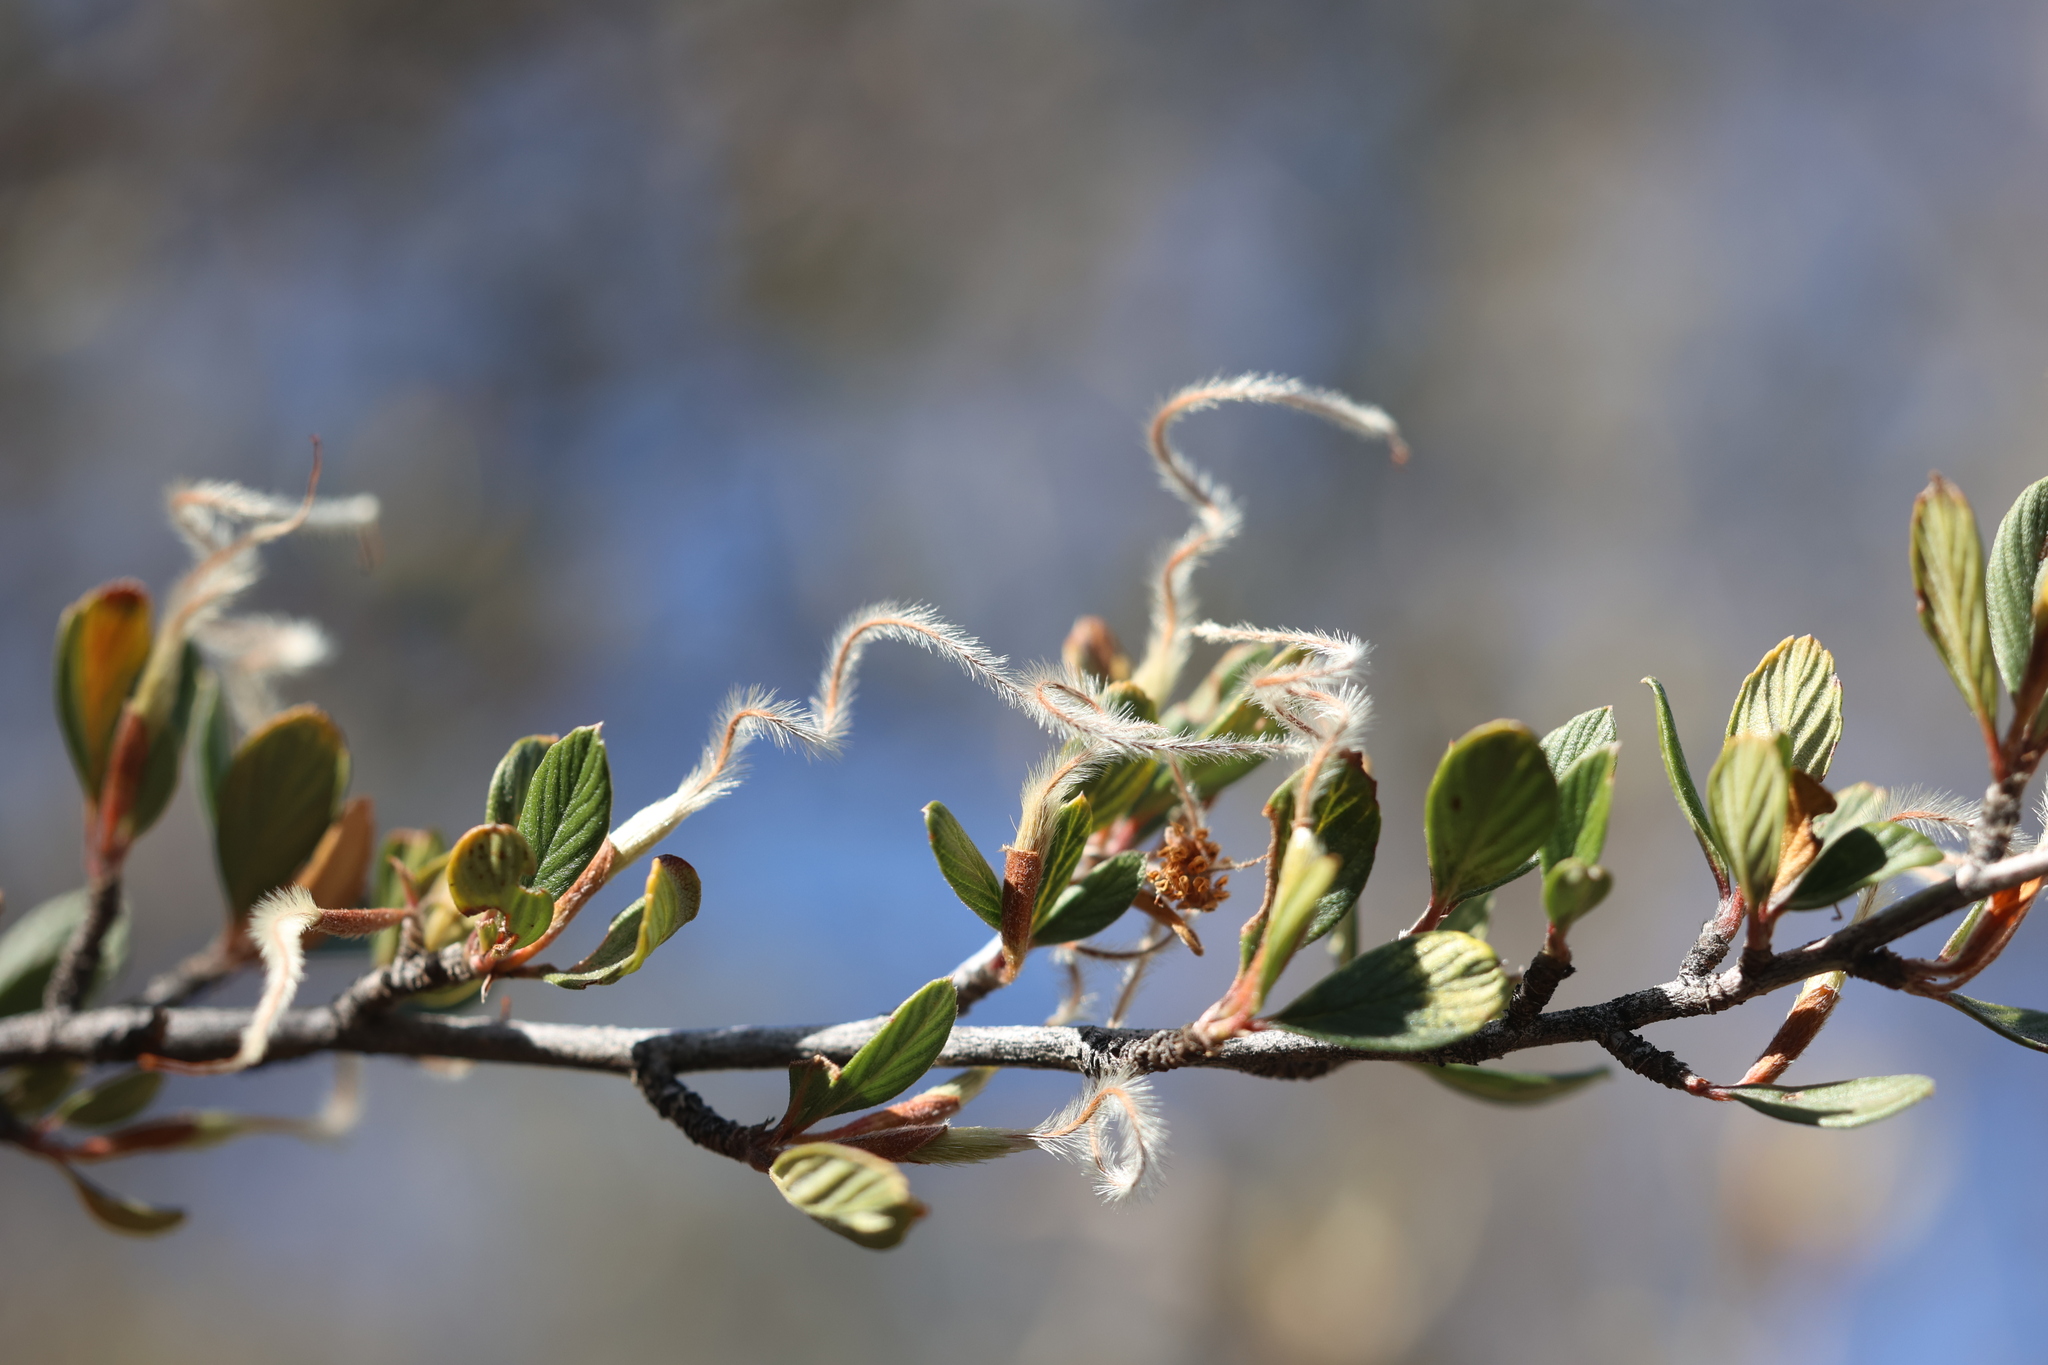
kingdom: Plantae
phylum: Tracheophyta
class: Magnoliopsida
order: Rosales
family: Rosaceae
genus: Cercocarpus
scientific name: Cercocarpus breviflorus
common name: Wright's mountain-mahogany
